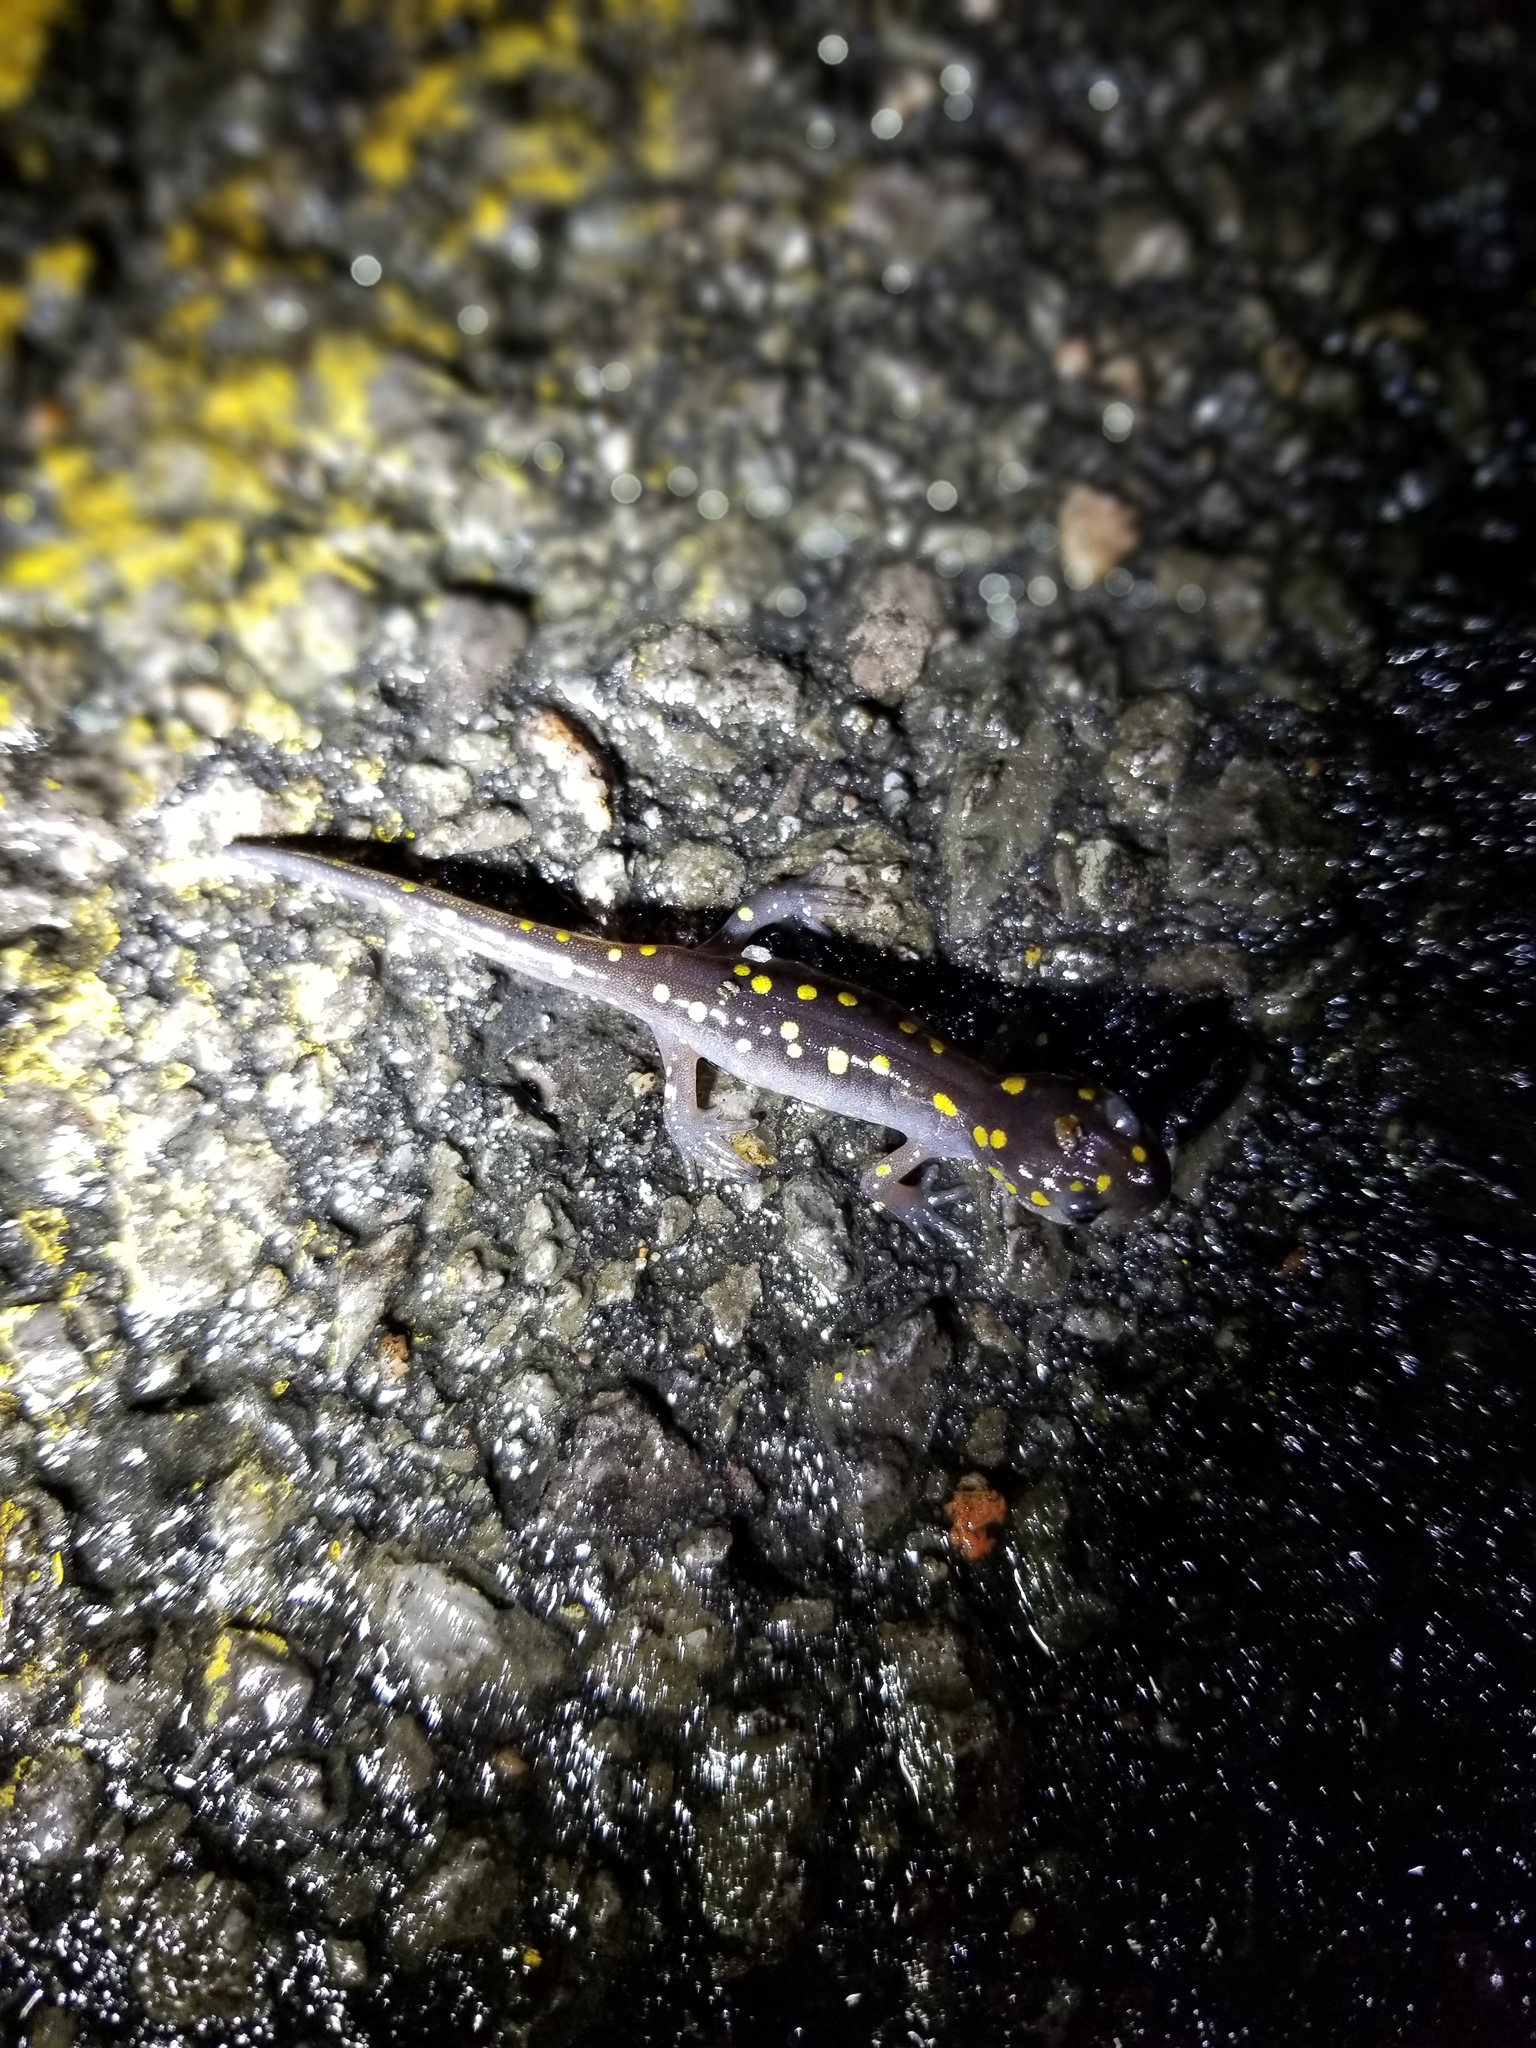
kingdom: Animalia
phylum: Chordata
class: Amphibia
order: Caudata
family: Ambystomatidae
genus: Ambystoma
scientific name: Ambystoma maculatum
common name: Spotted salamander
